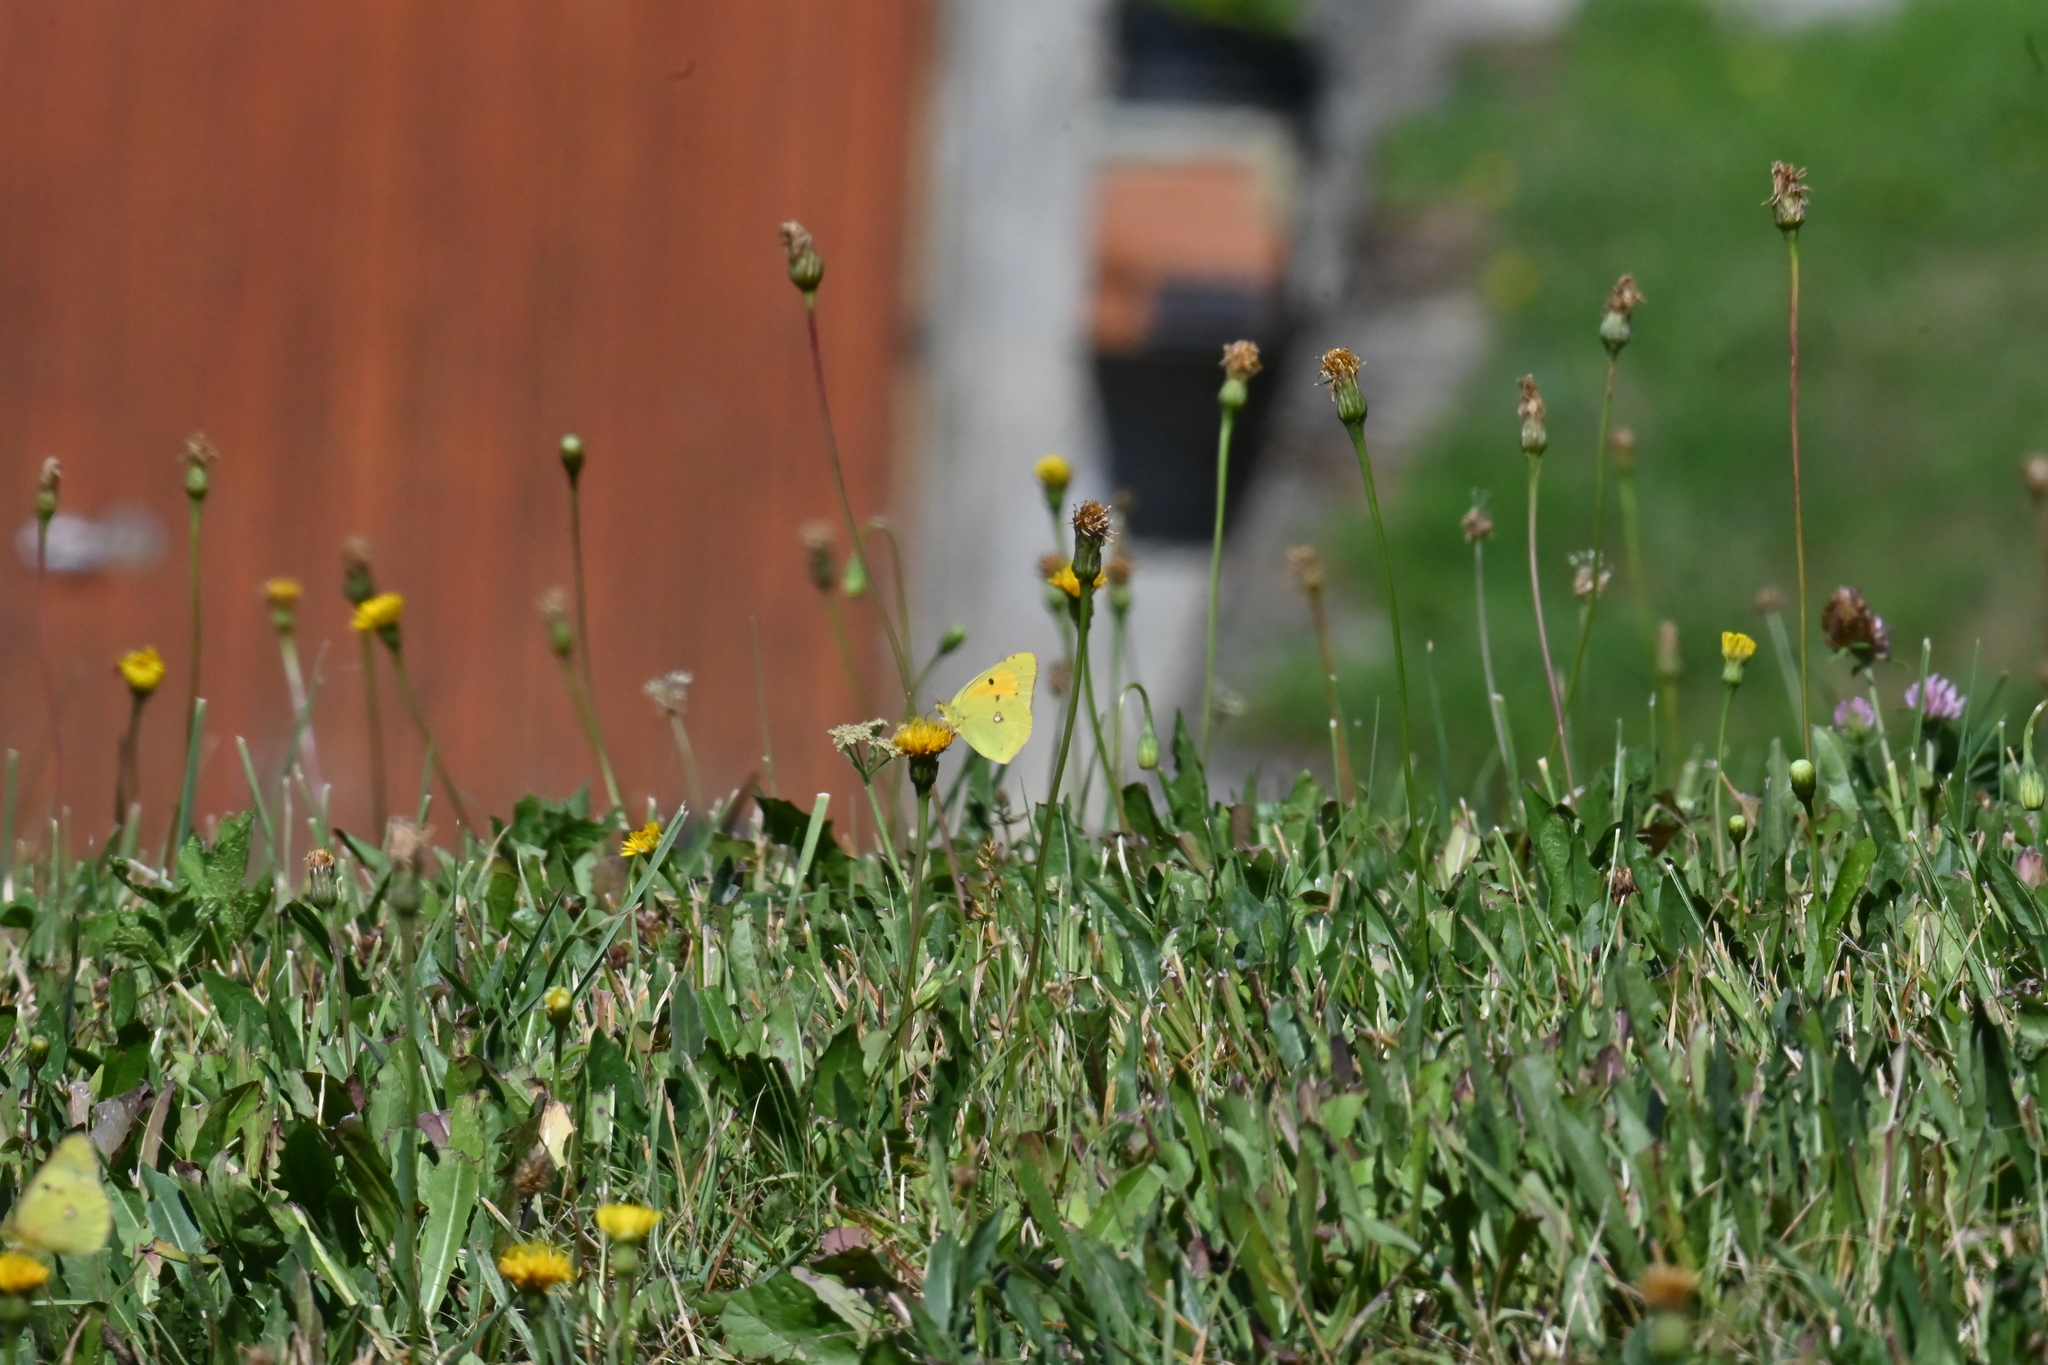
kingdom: Animalia
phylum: Arthropoda
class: Insecta
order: Lepidoptera
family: Pieridae
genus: Colias
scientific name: Colias croceus
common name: Clouded yellow
